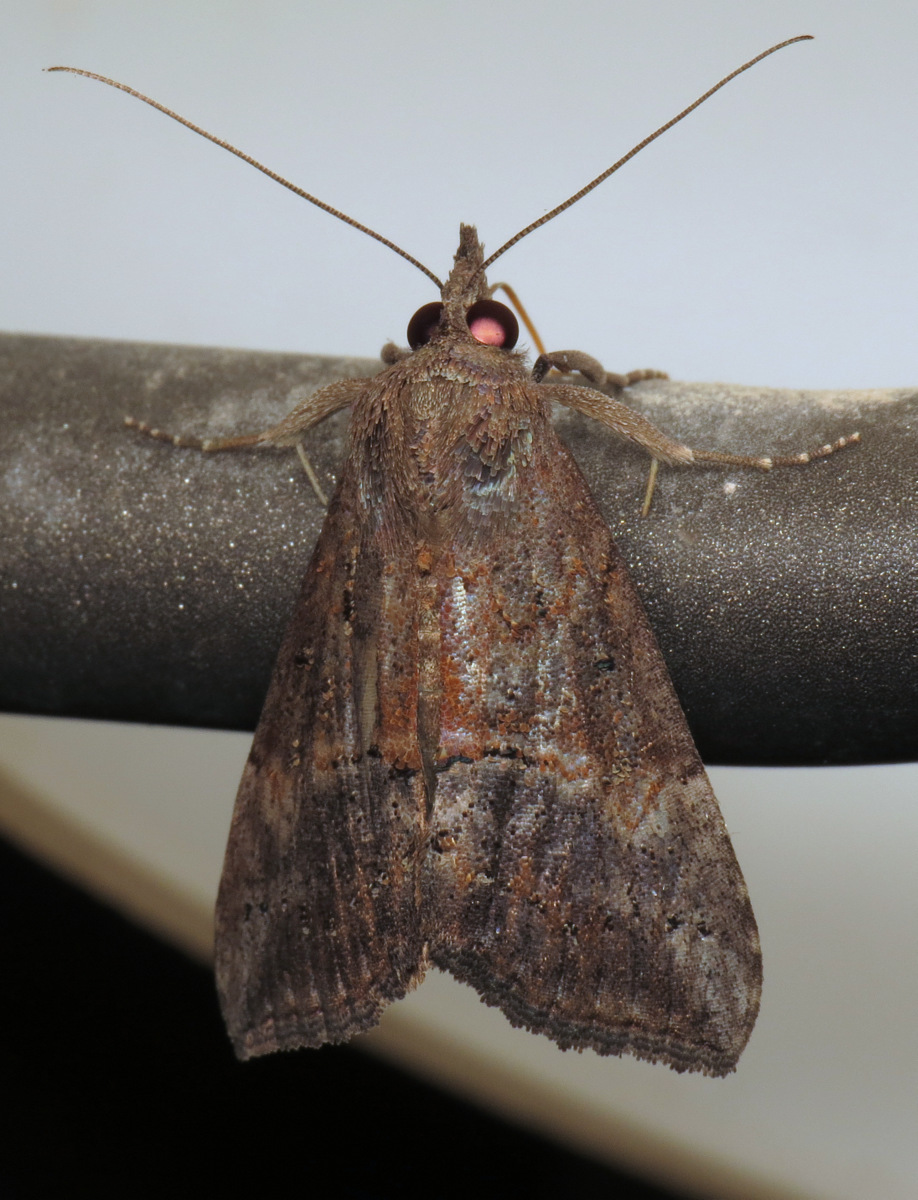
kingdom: Animalia
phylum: Arthropoda
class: Insecta
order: Lepidoptera
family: Erebidae
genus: Hypena
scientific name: Hypena scabra
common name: Green cloverworm
